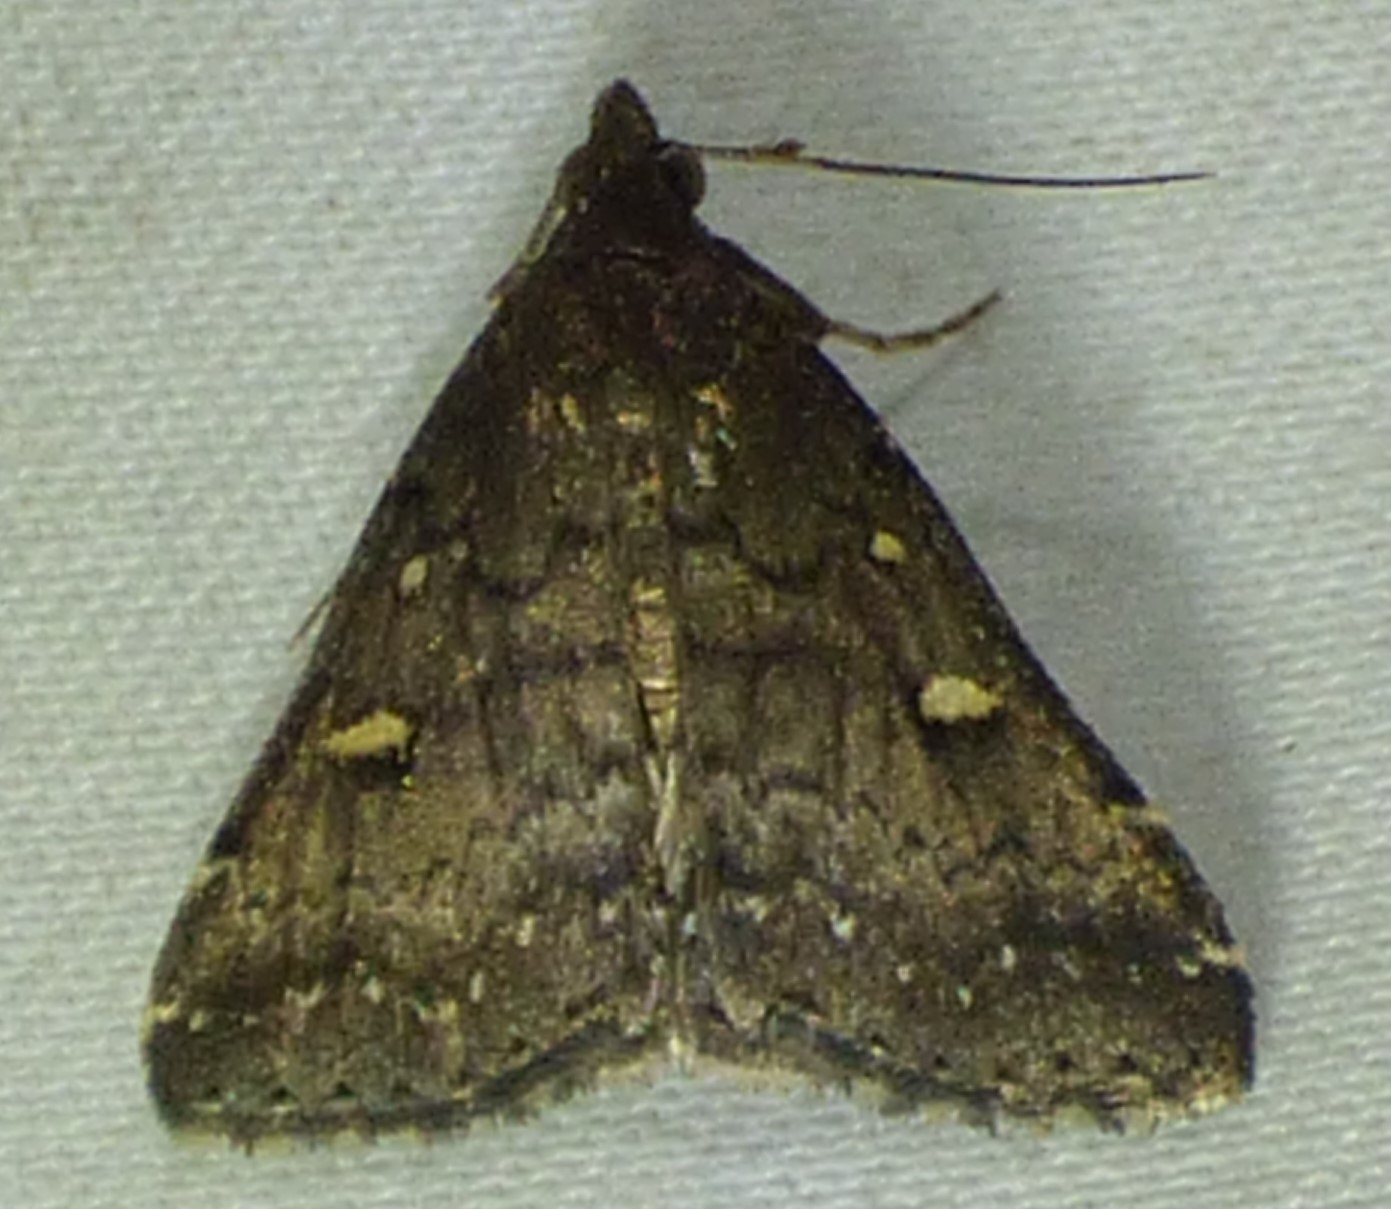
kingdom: Animalia
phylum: Arthropoda
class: Insecta
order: Lepidoptera
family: Erebidae
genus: Tetanolita
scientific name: Tetanolita mynesalis
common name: Smoky tetanolita moth
